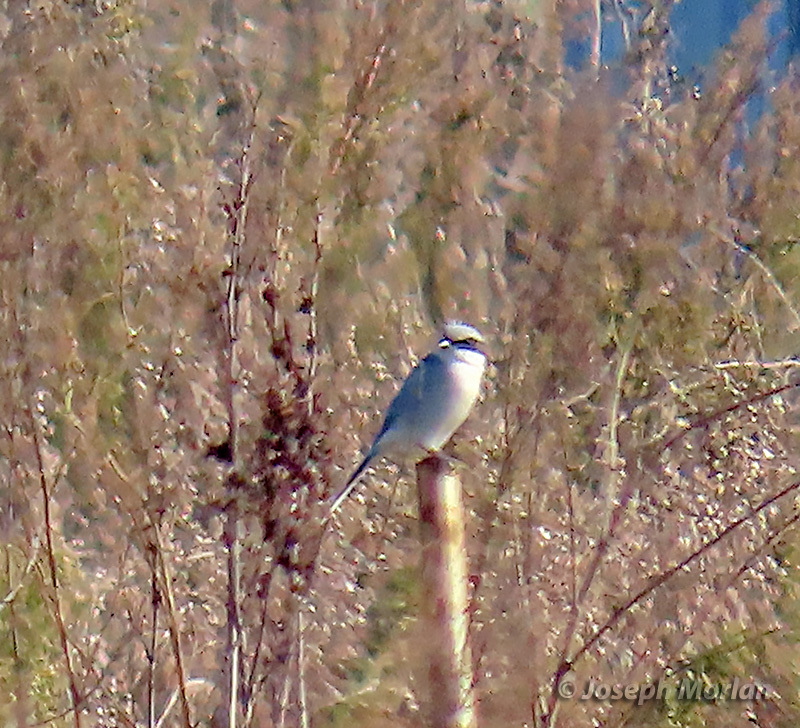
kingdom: Animalia
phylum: Chordata
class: Aves
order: Passeriformes
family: Laniidae
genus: Lanius
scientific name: Lanius ludovicianus
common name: Loggerhead shrike
